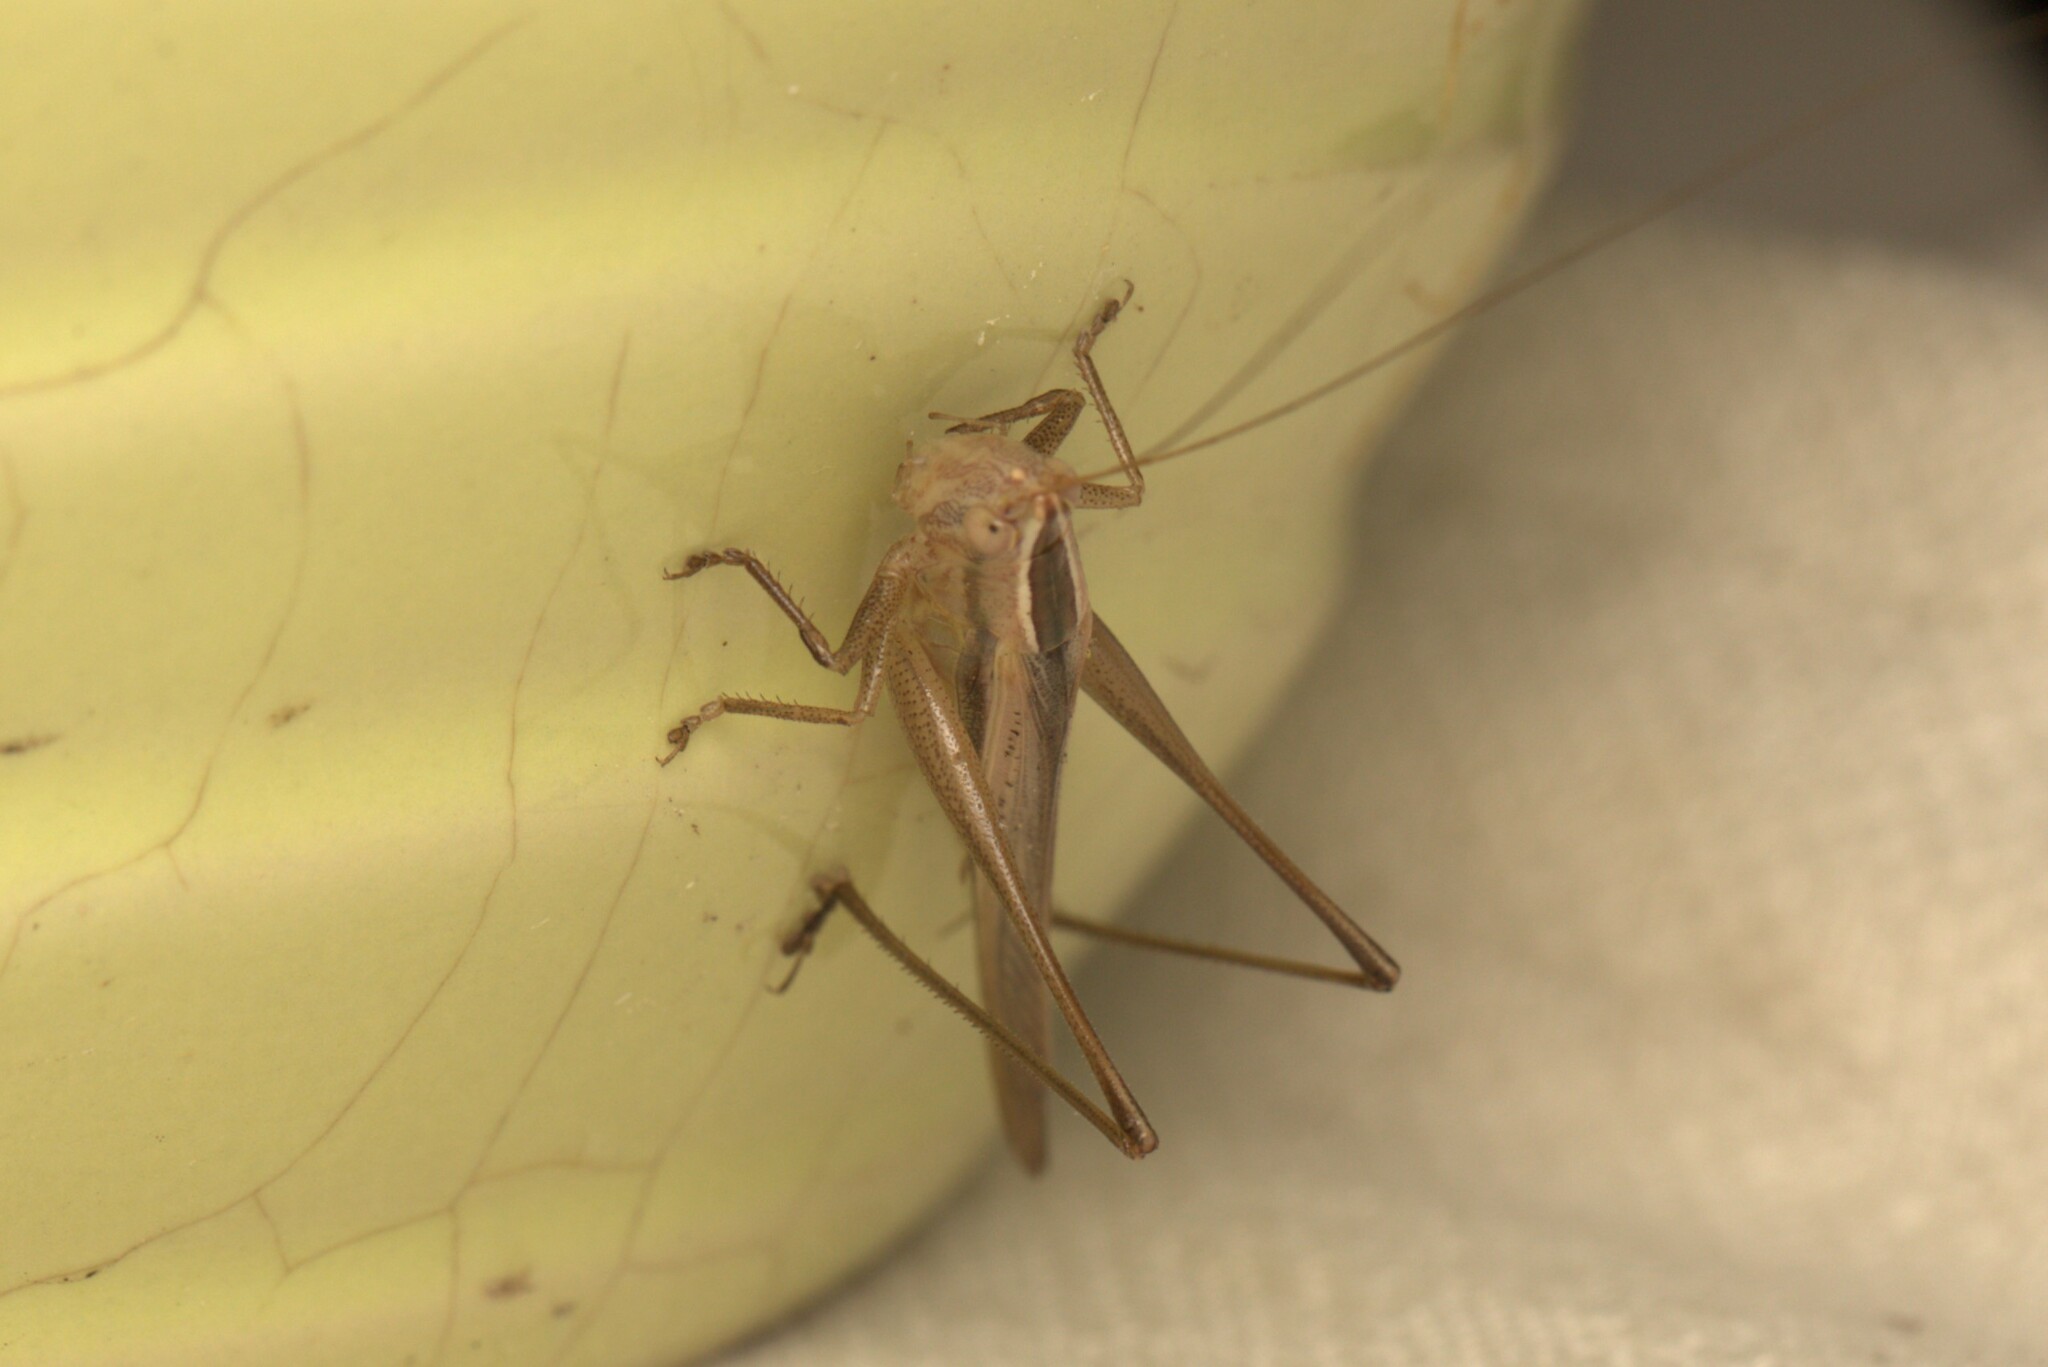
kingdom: Animalia
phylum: Arthropoda
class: Insecta
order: Orthoptera
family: Tettigoniidae
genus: Conocephalus
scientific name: Conocephalus upoluensis
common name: Upolu meadow katydid
